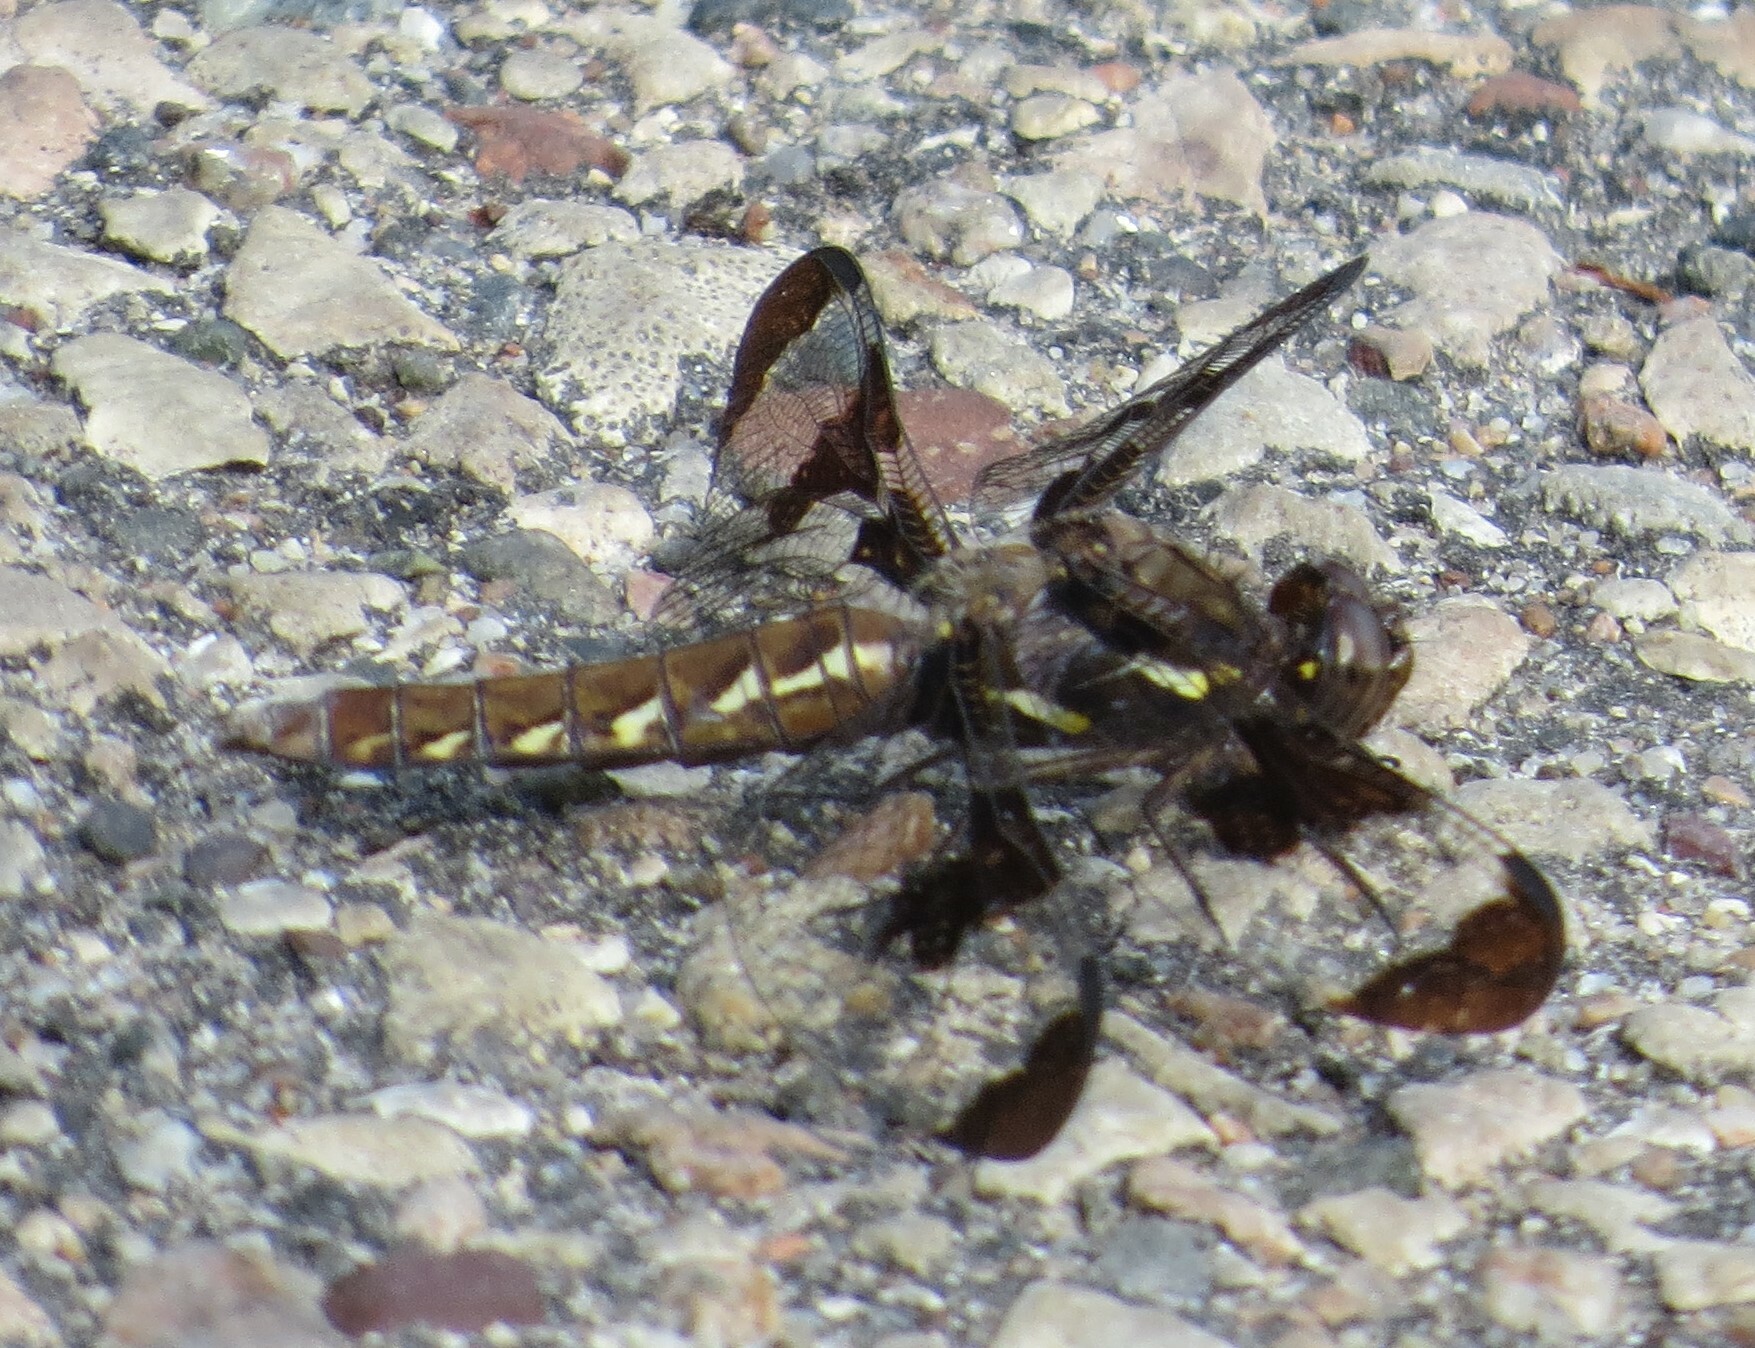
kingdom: Animalia
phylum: Arthropoda
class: Insecta
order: Odonata
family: Libellulidae
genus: Plathemis
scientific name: Plathemis lydia
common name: Common whitetail
